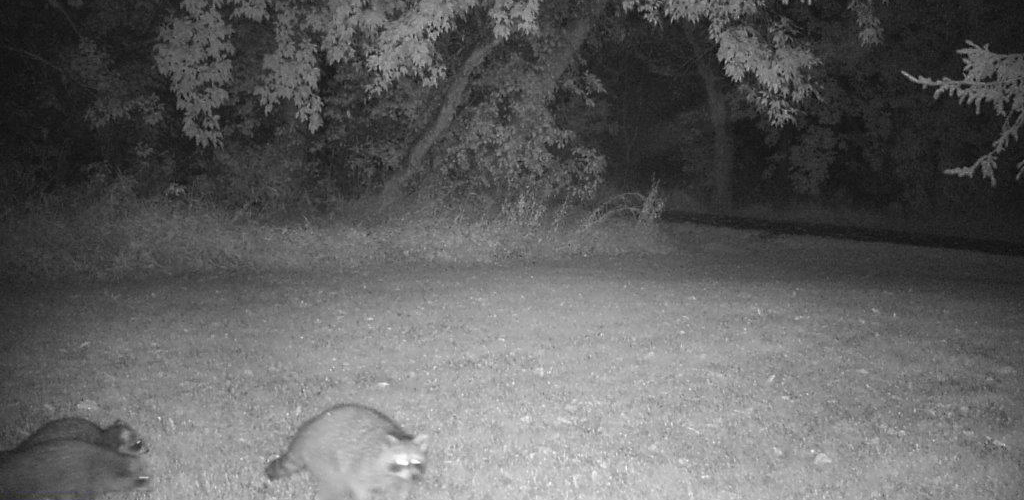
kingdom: Animalia
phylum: Chordata
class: Mammalia
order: Carnivora
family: Procyonidae
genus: Procyon
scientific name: Procyon lotor
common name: Raccoon
